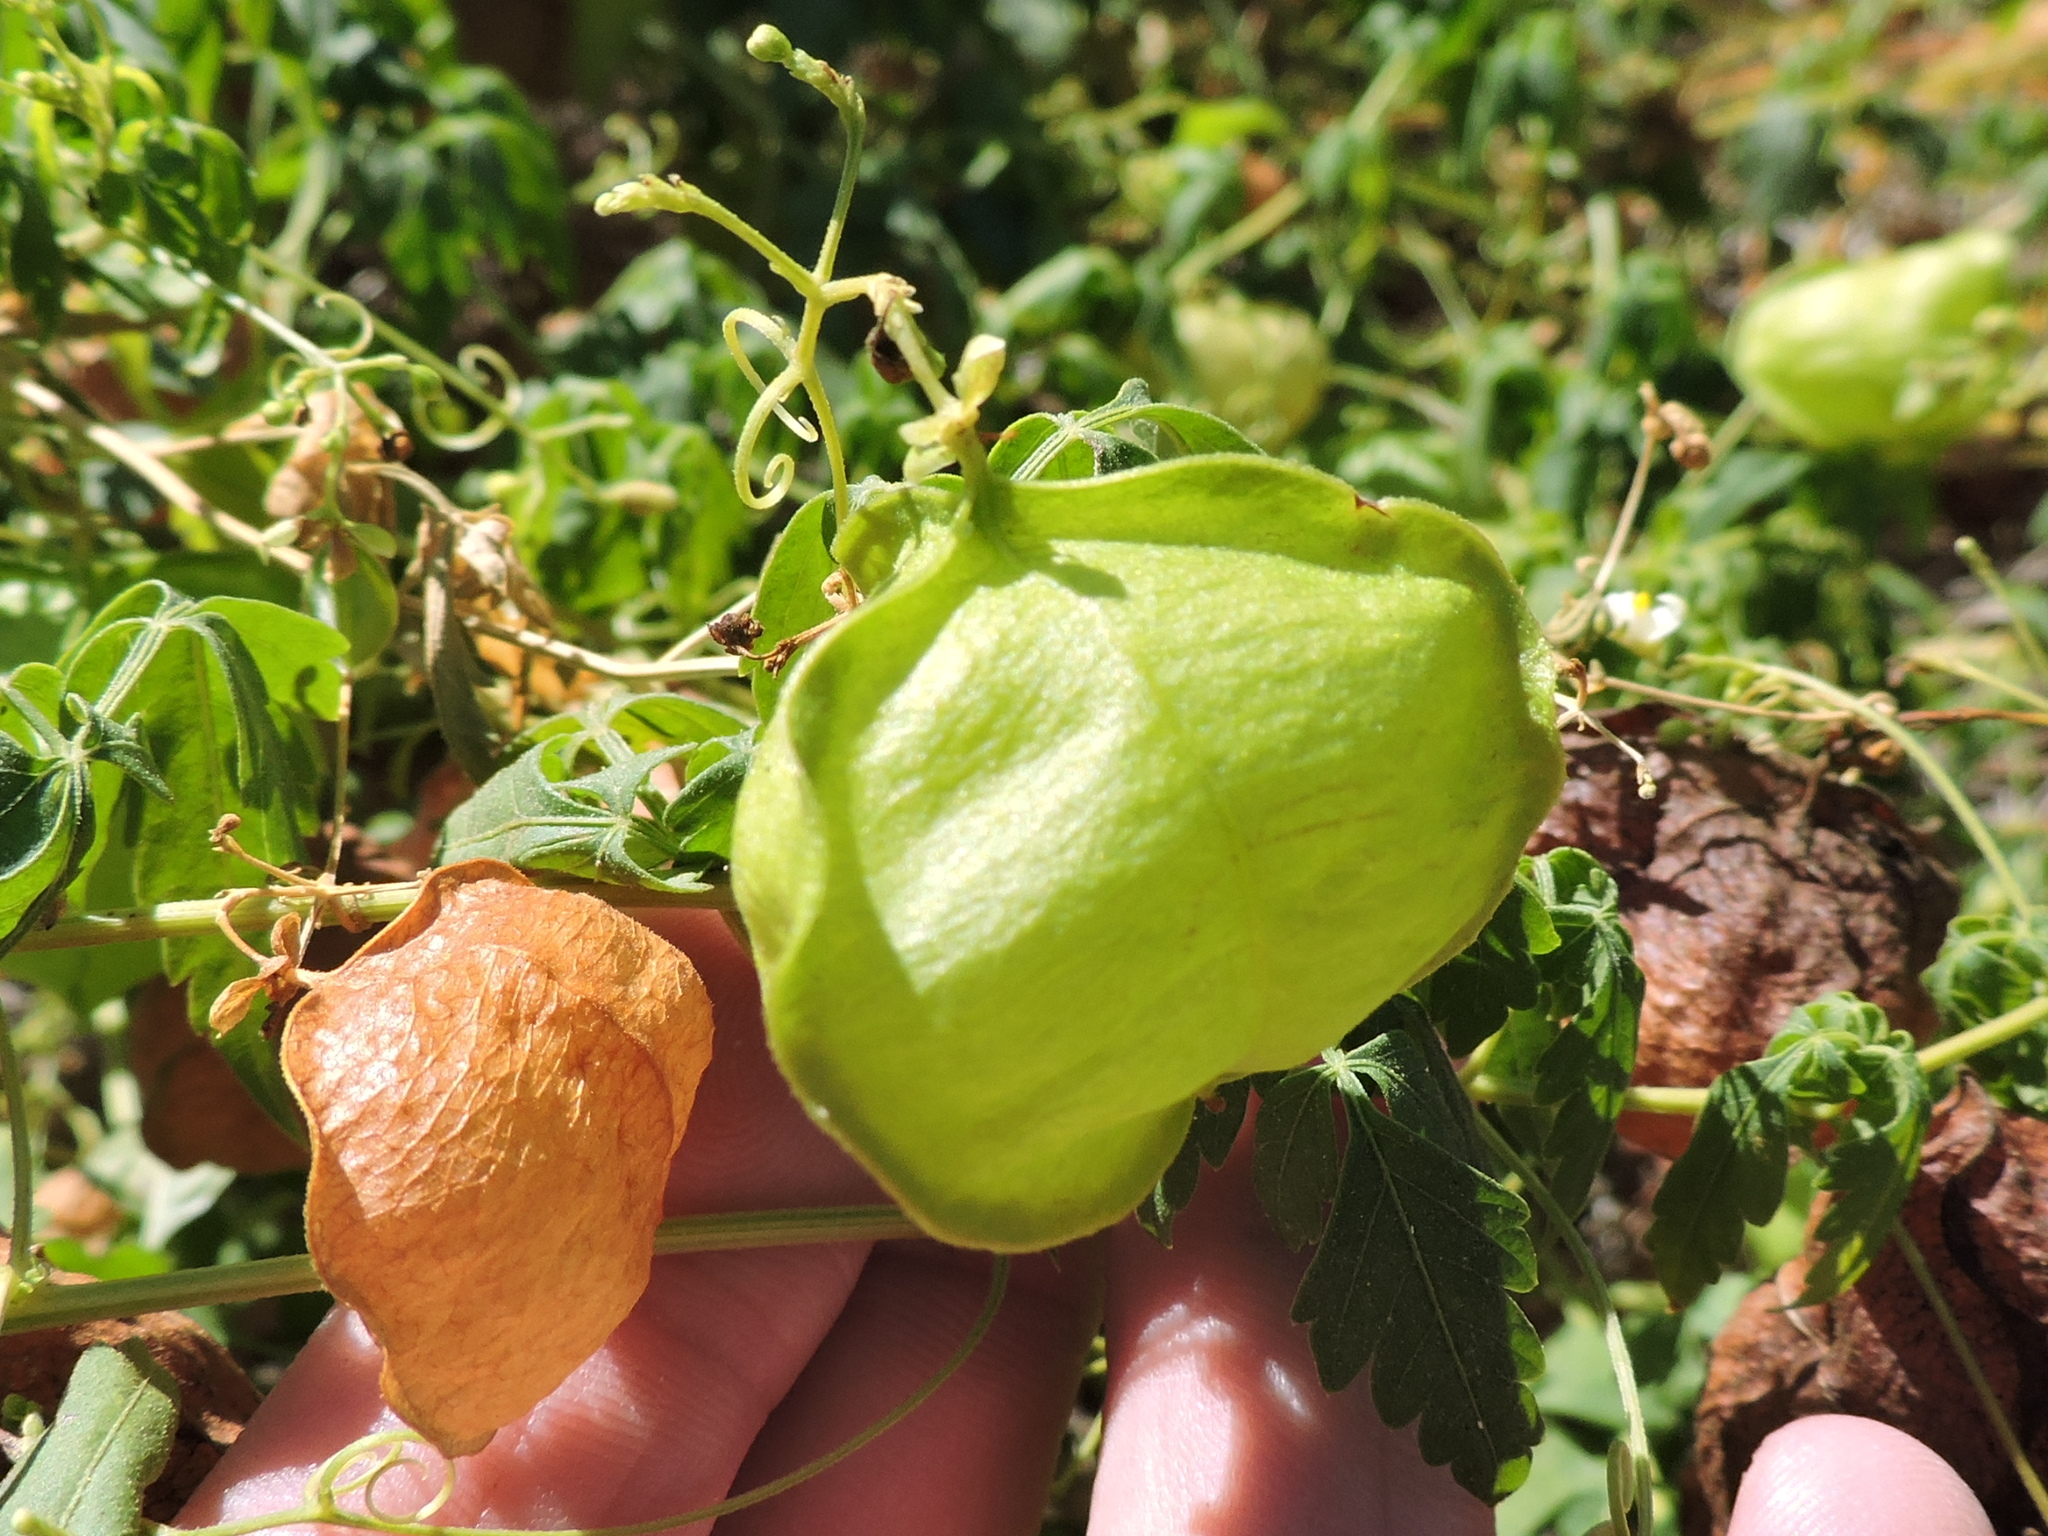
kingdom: Plantae
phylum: Tracheophyta
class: Magnoliopsida
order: Sapindales
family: Sapindaceae
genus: Cardiospermum
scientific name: Cardiospermum halicacabum
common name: Balloon vine
